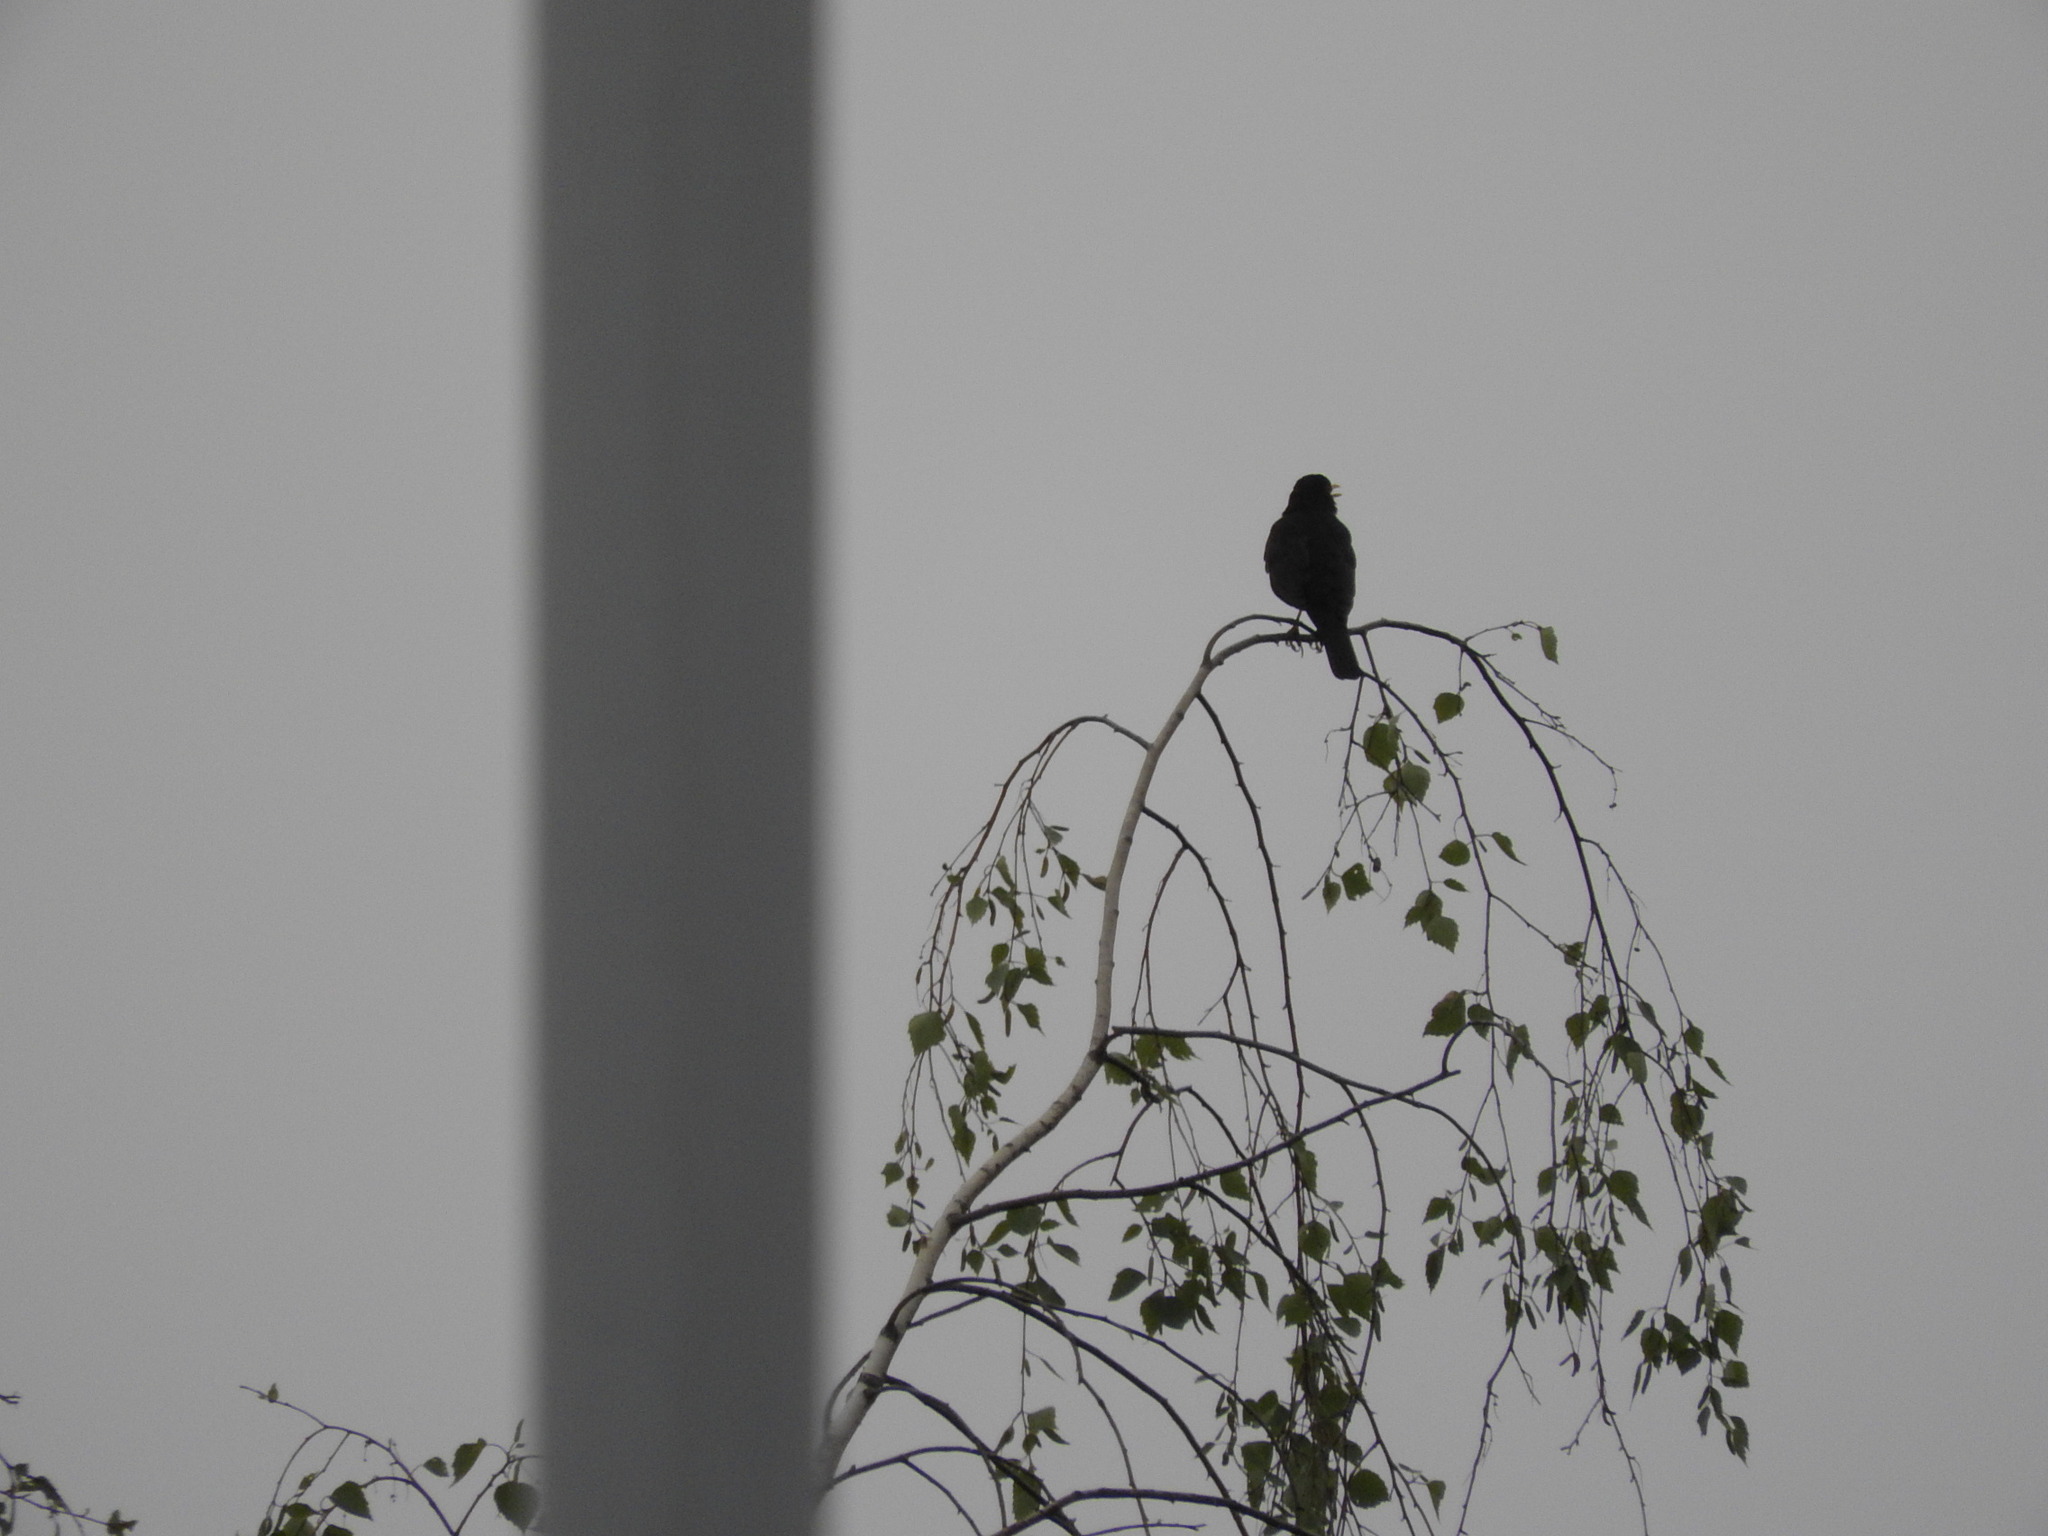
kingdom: Animalia
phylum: Chordata
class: Aves
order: Passeriformes
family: Turdidae
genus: Turdus
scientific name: Turdus merula
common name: Common blackbird
